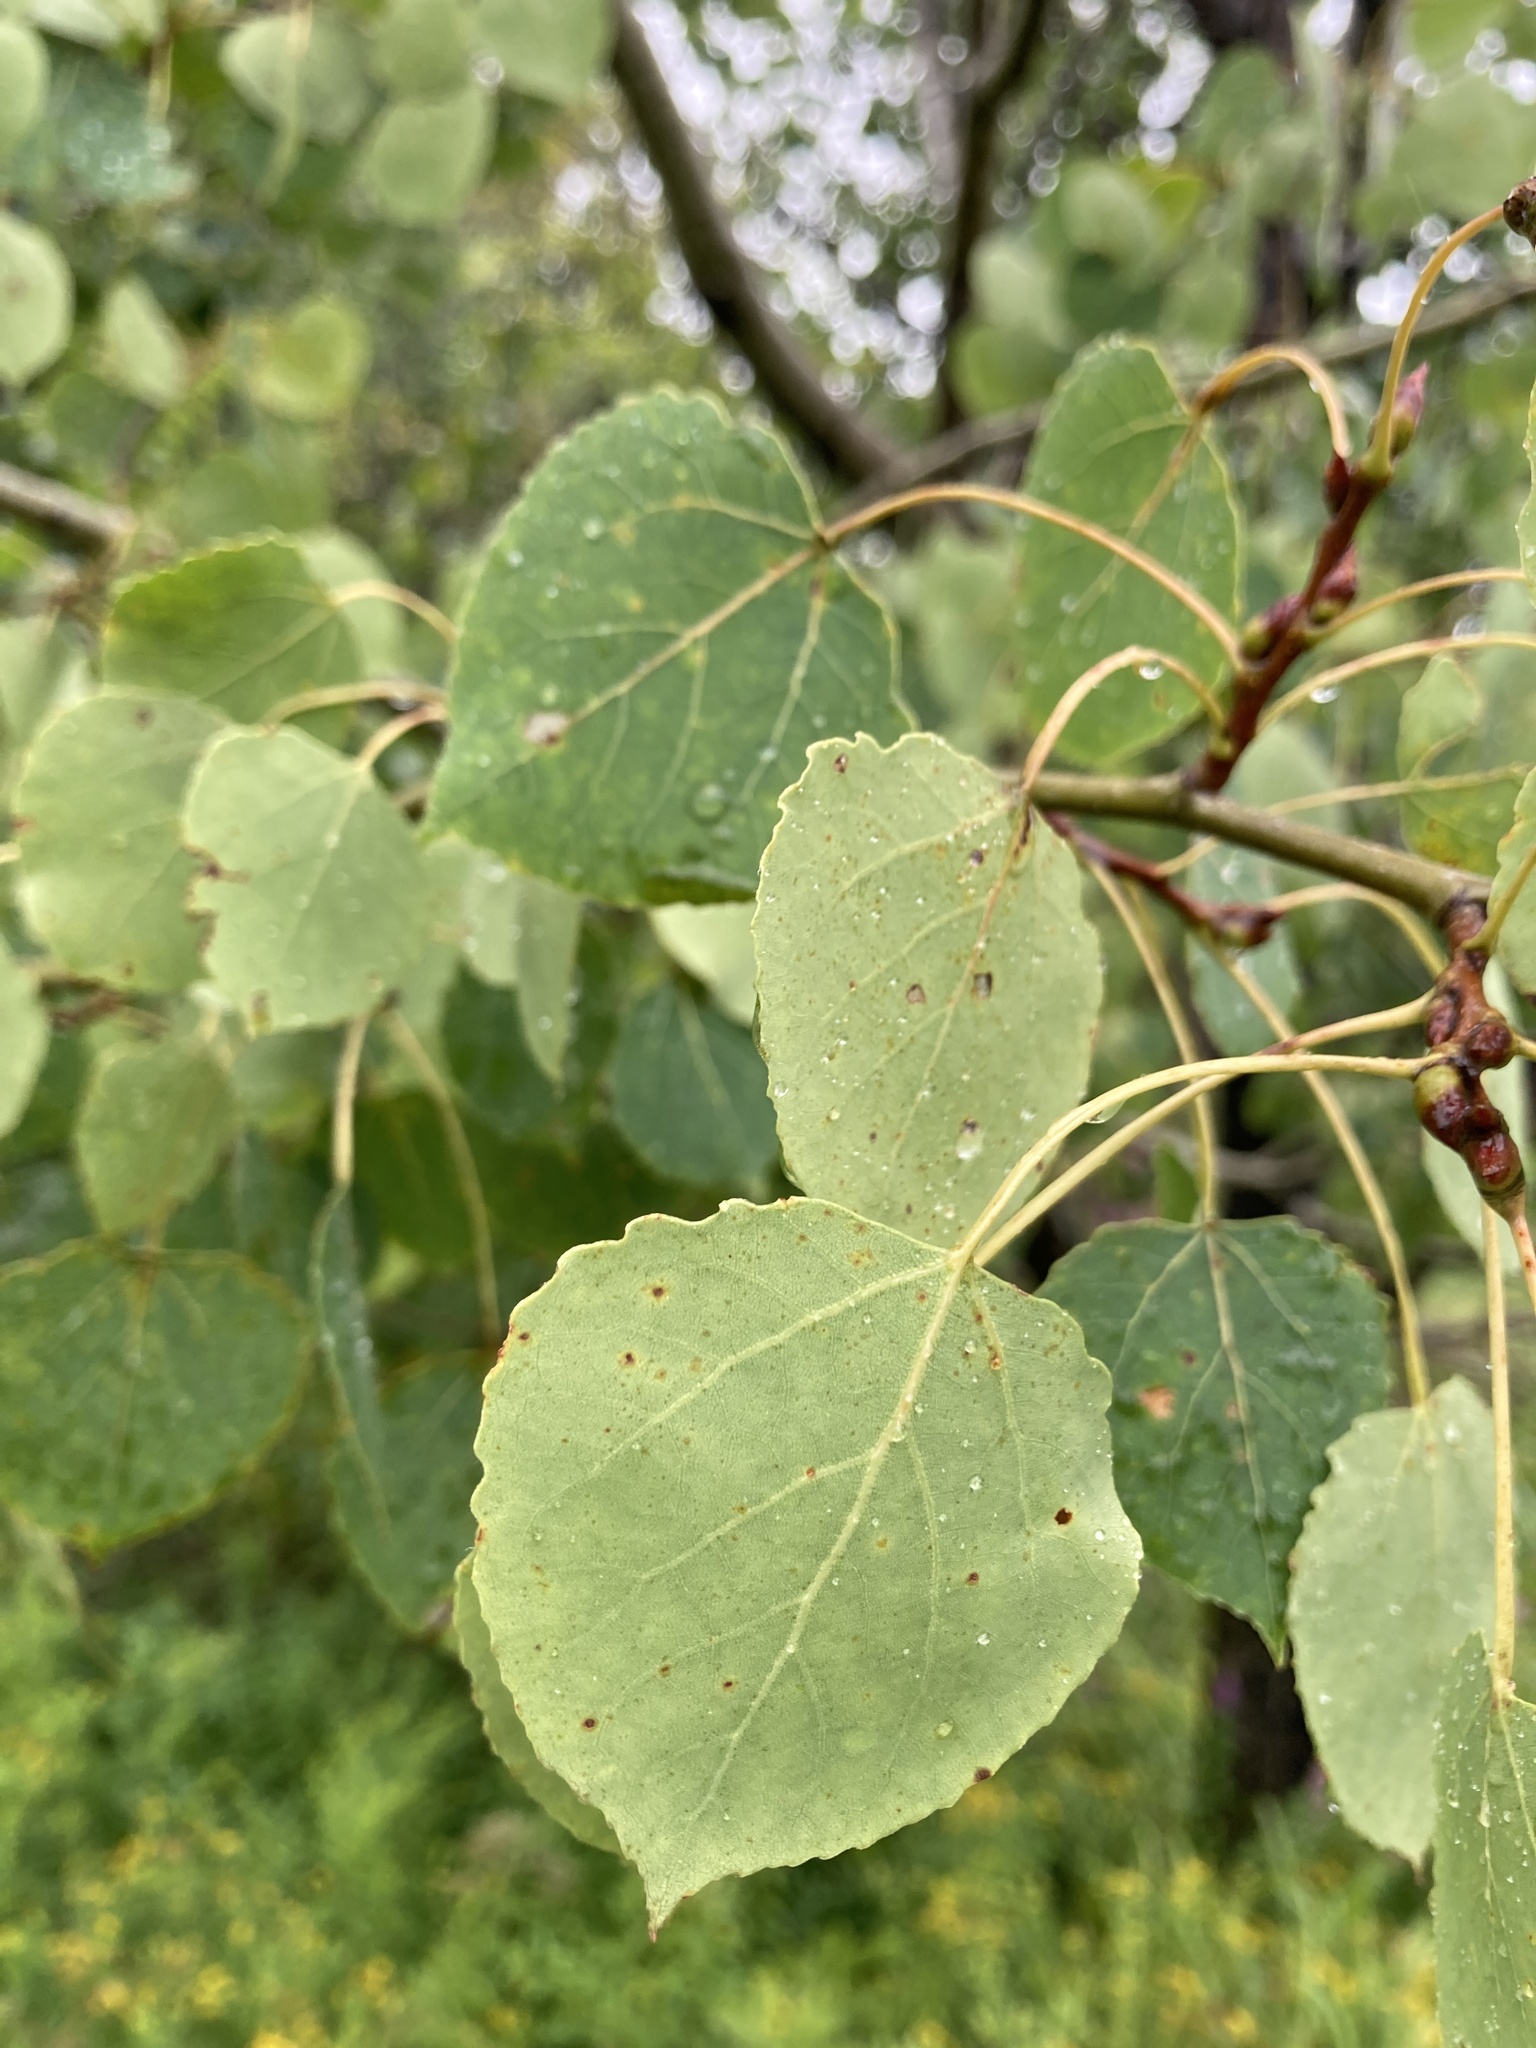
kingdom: Plantae
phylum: Tracheophyta
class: Magnoliopsida
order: Malpighiales
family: Salicaceae
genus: Populus
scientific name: Populus tremuloides
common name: Quaking aspen
